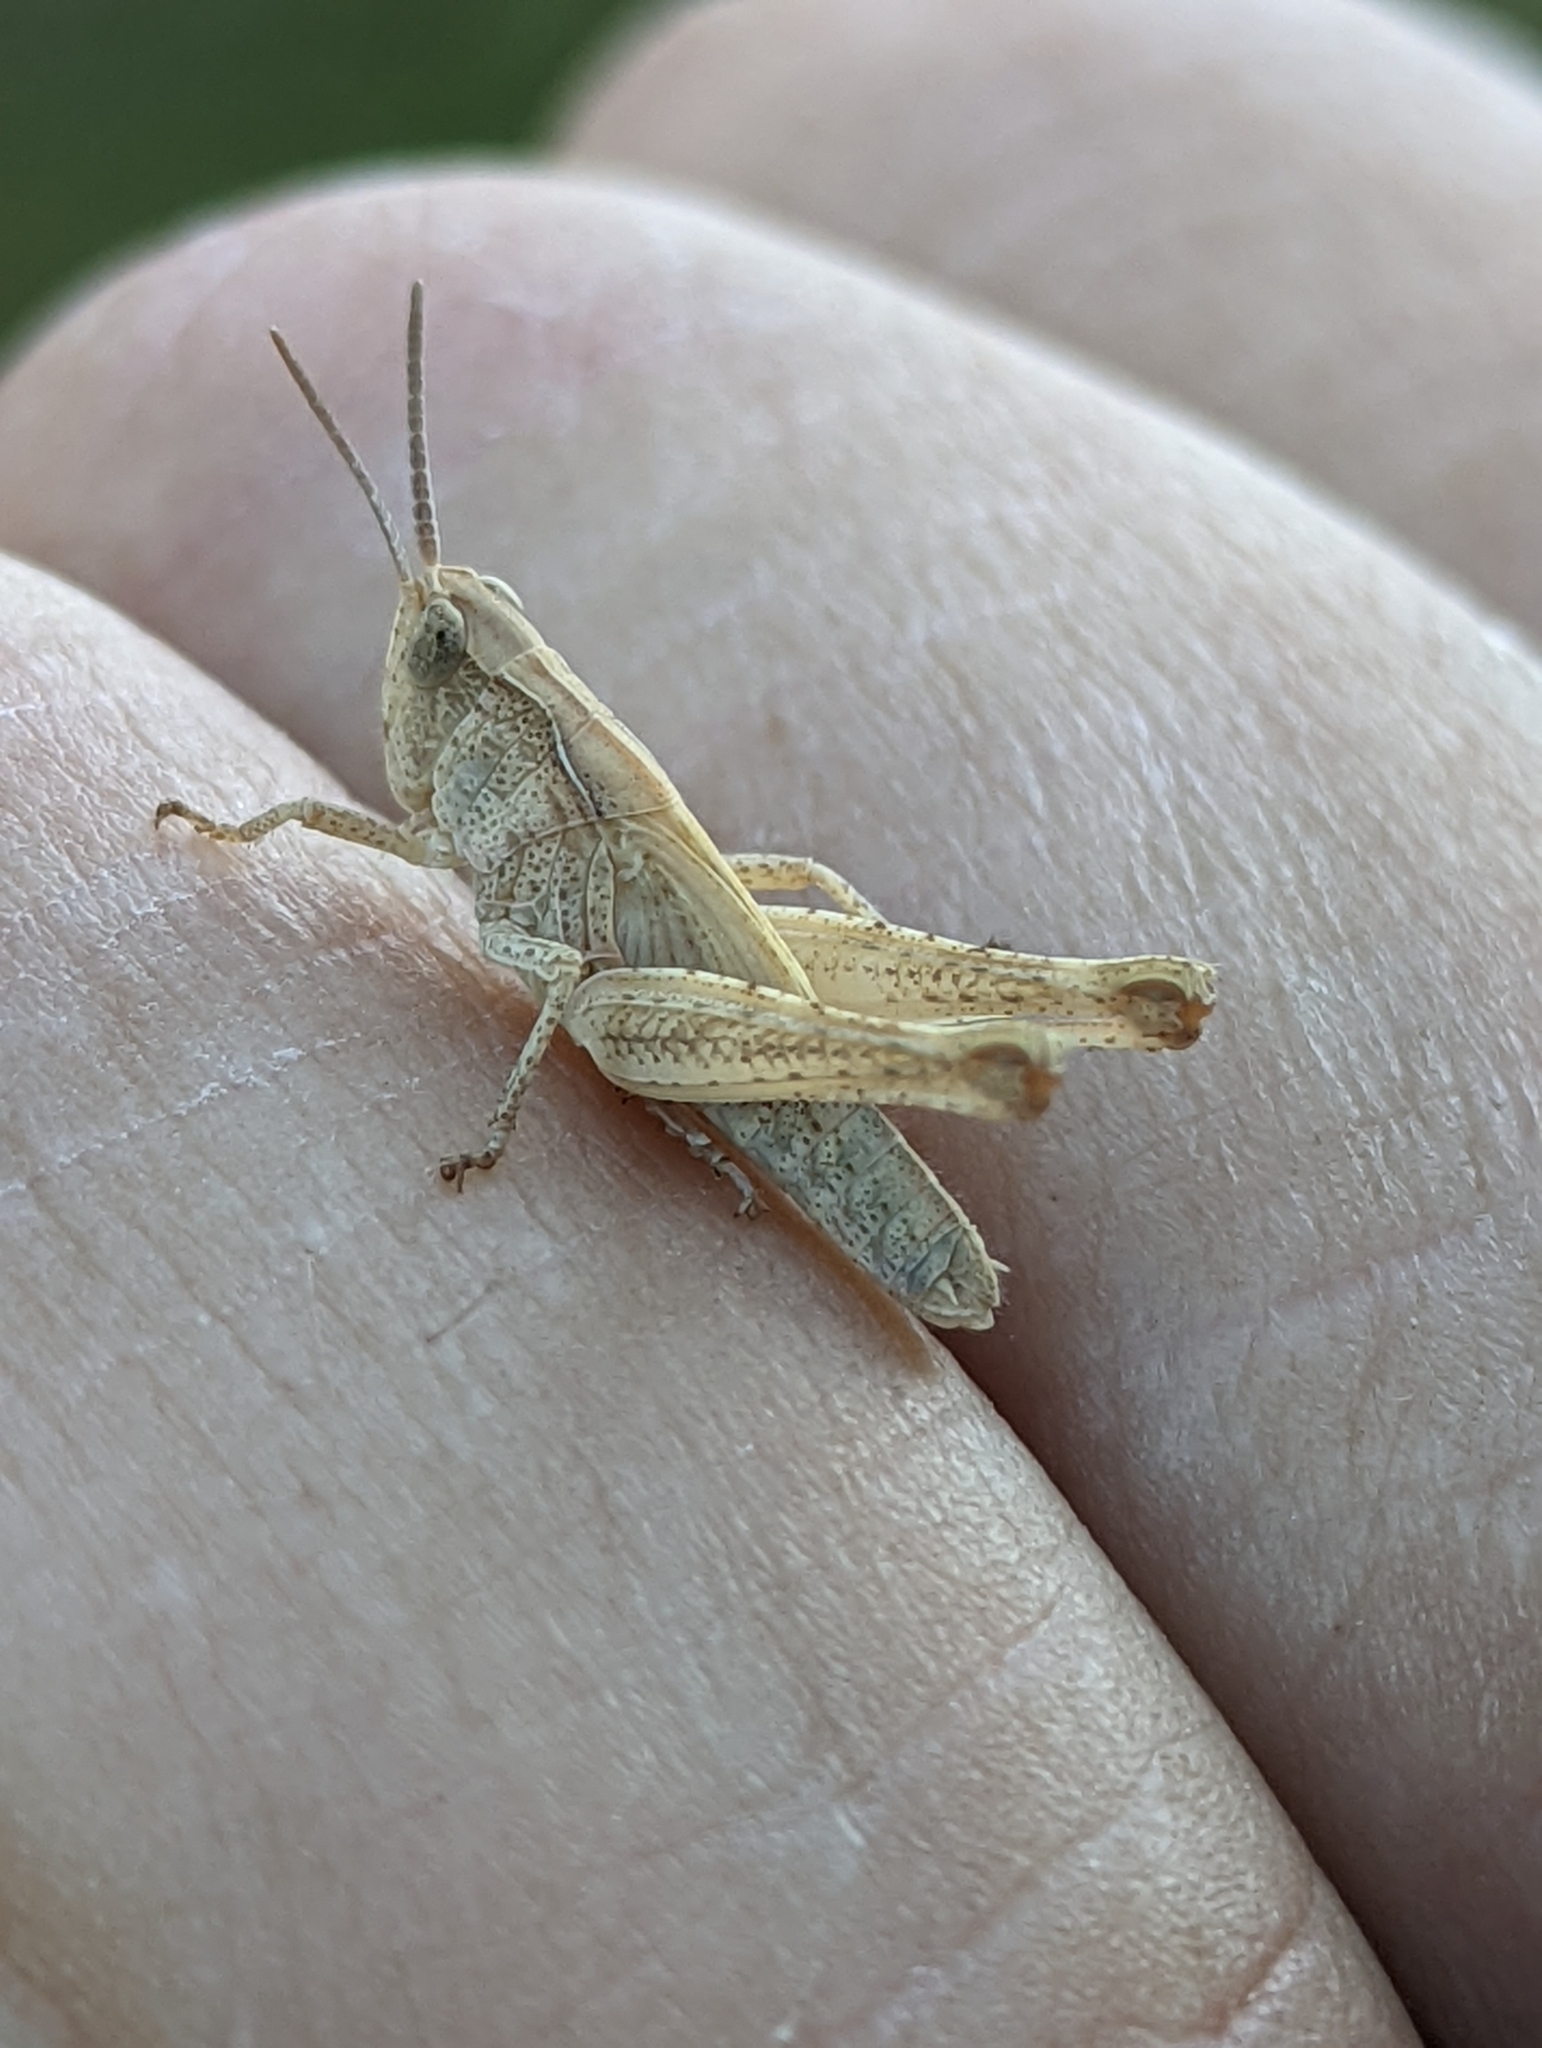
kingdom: Animalia
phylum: Arthropoda
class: Insecta
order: Orthoptera
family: Acrididae
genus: Chorthippus
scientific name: Chorthippus brunneus
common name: Field grasshopper
